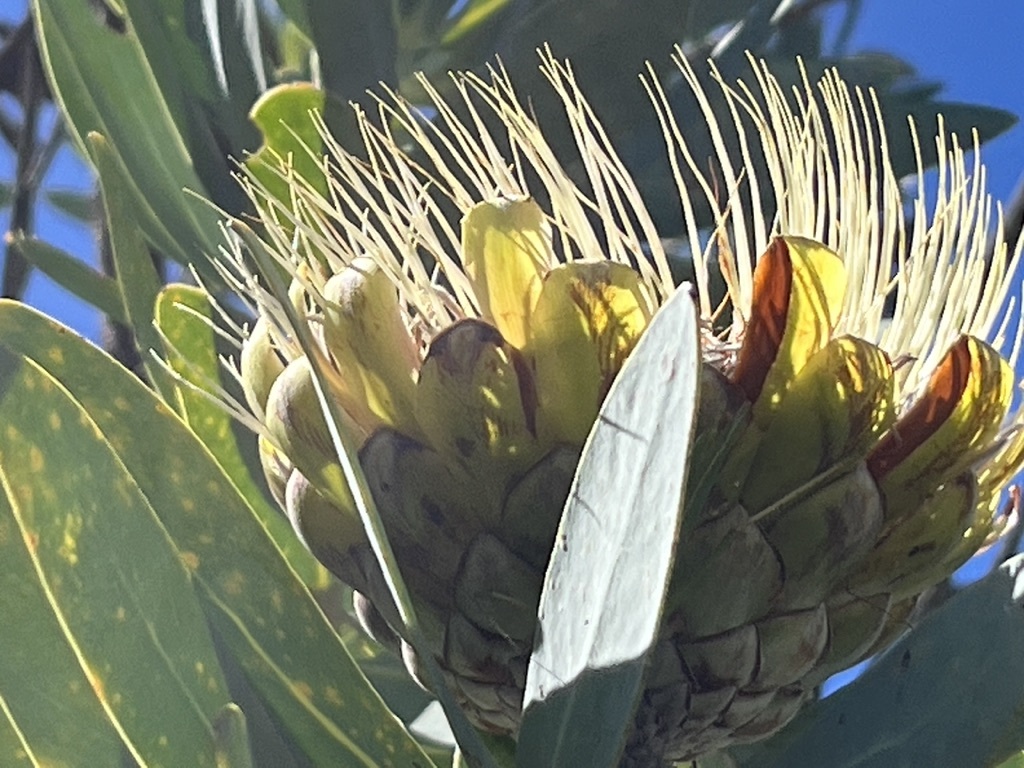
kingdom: Plantae
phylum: Tracheophyta
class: Magnoliopsida
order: Proteales
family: Proteaceae
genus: Protea
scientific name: Protea nitida
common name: Tree protea
